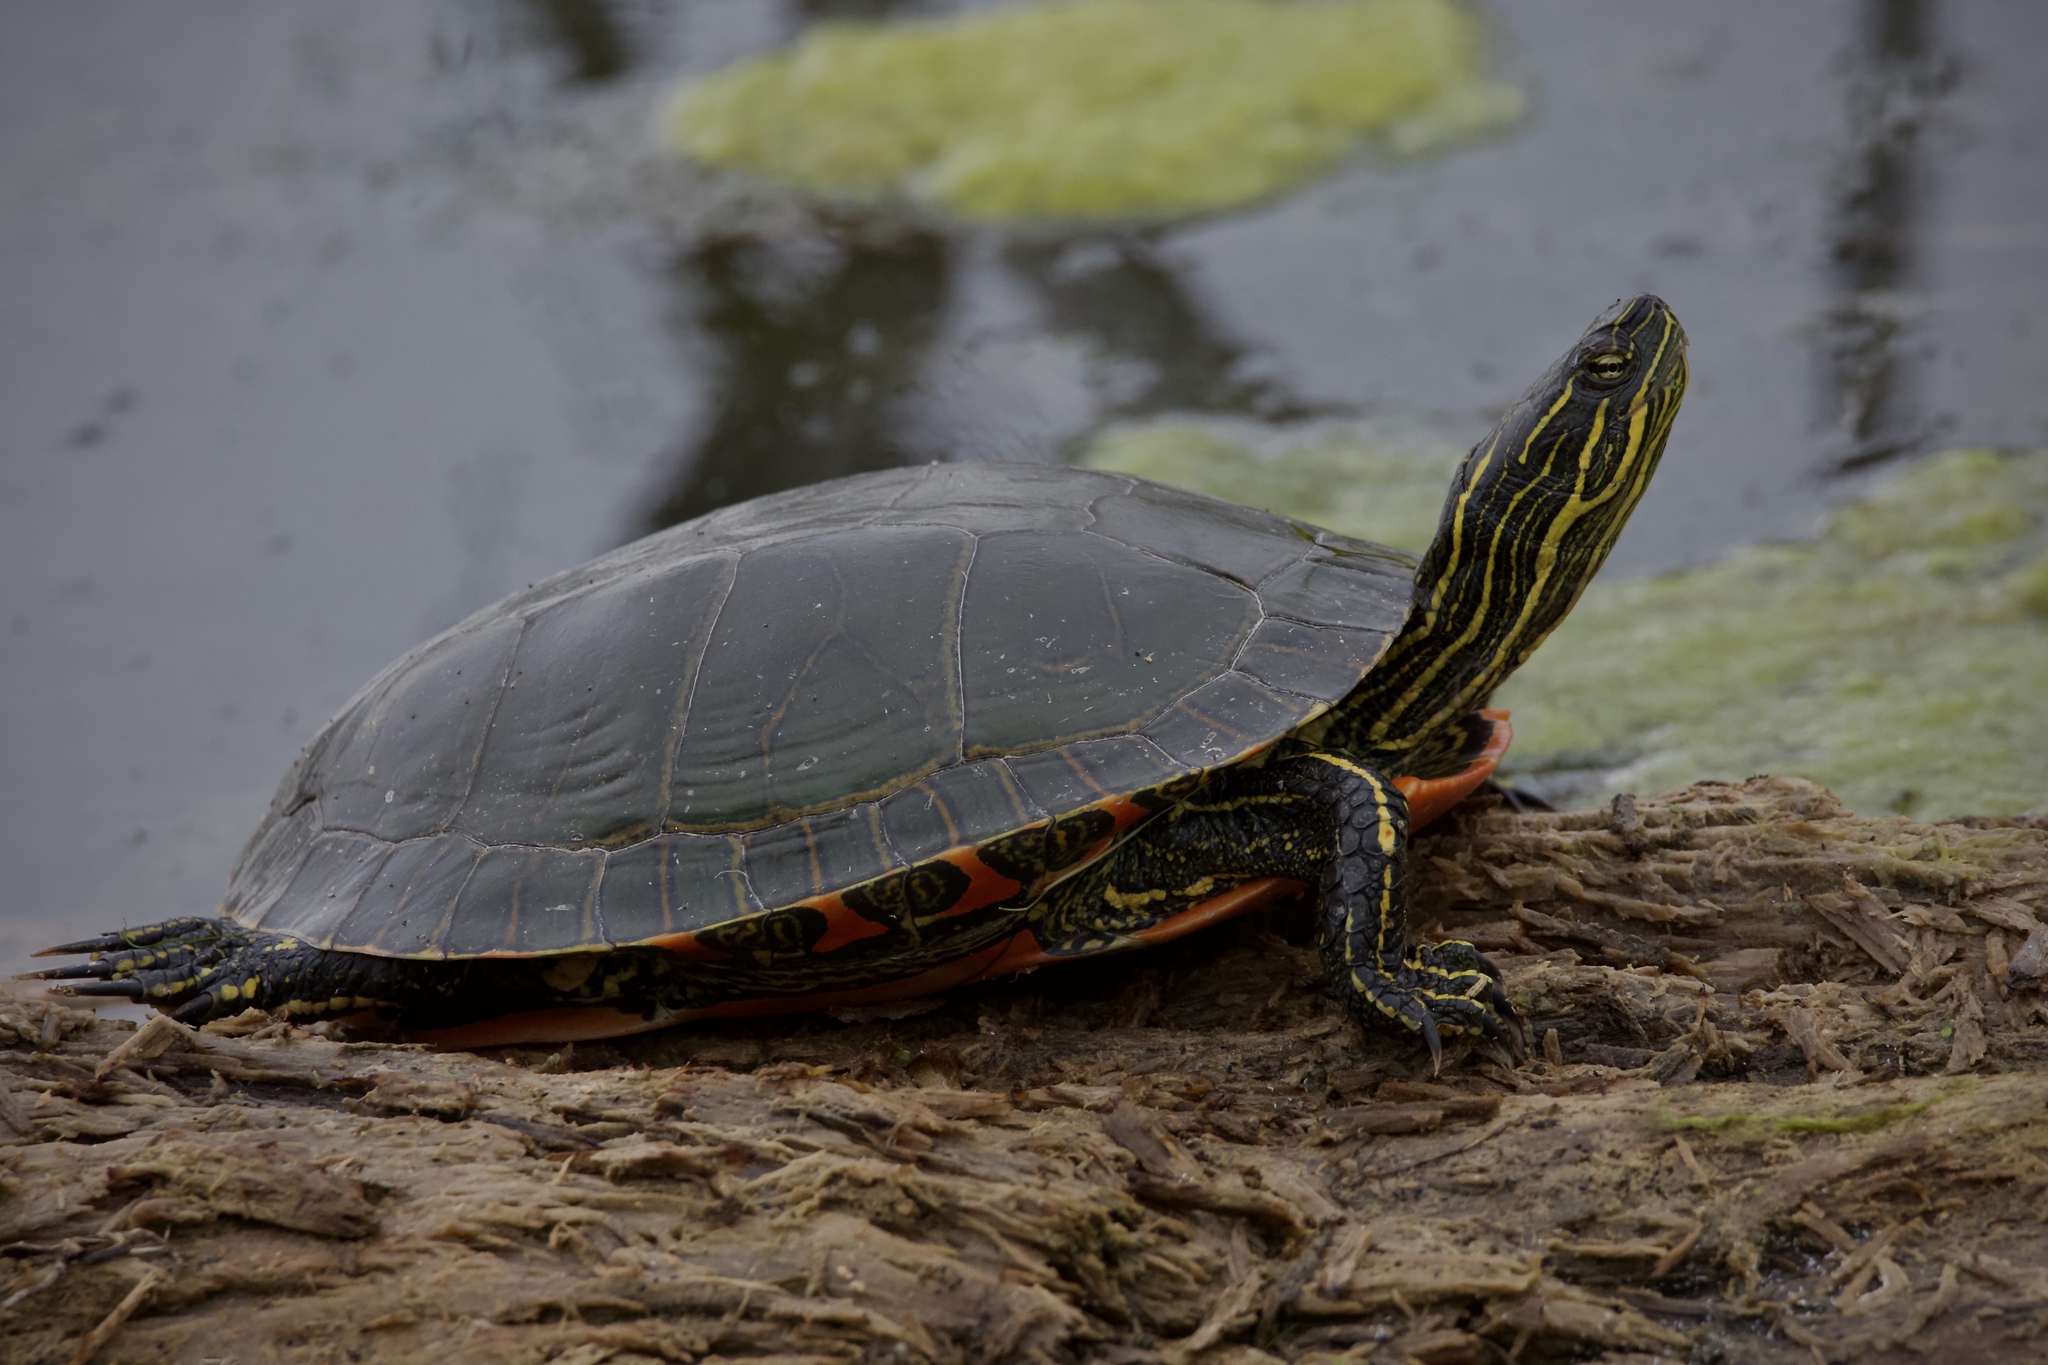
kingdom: Animalia
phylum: Chordata
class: Testudines
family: Emydidae
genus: Chrysemys
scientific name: Chrysemys picta
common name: Painted turtle
